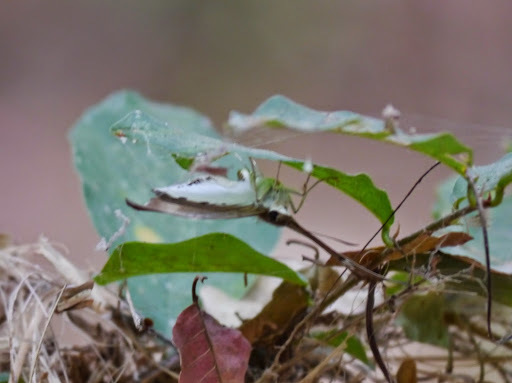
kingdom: Animalia
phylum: Arthropoda
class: Insecta
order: Lepidoptera
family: Hesperiidae
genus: Tagiades
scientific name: Tagiades flesus
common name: Clouded flat
